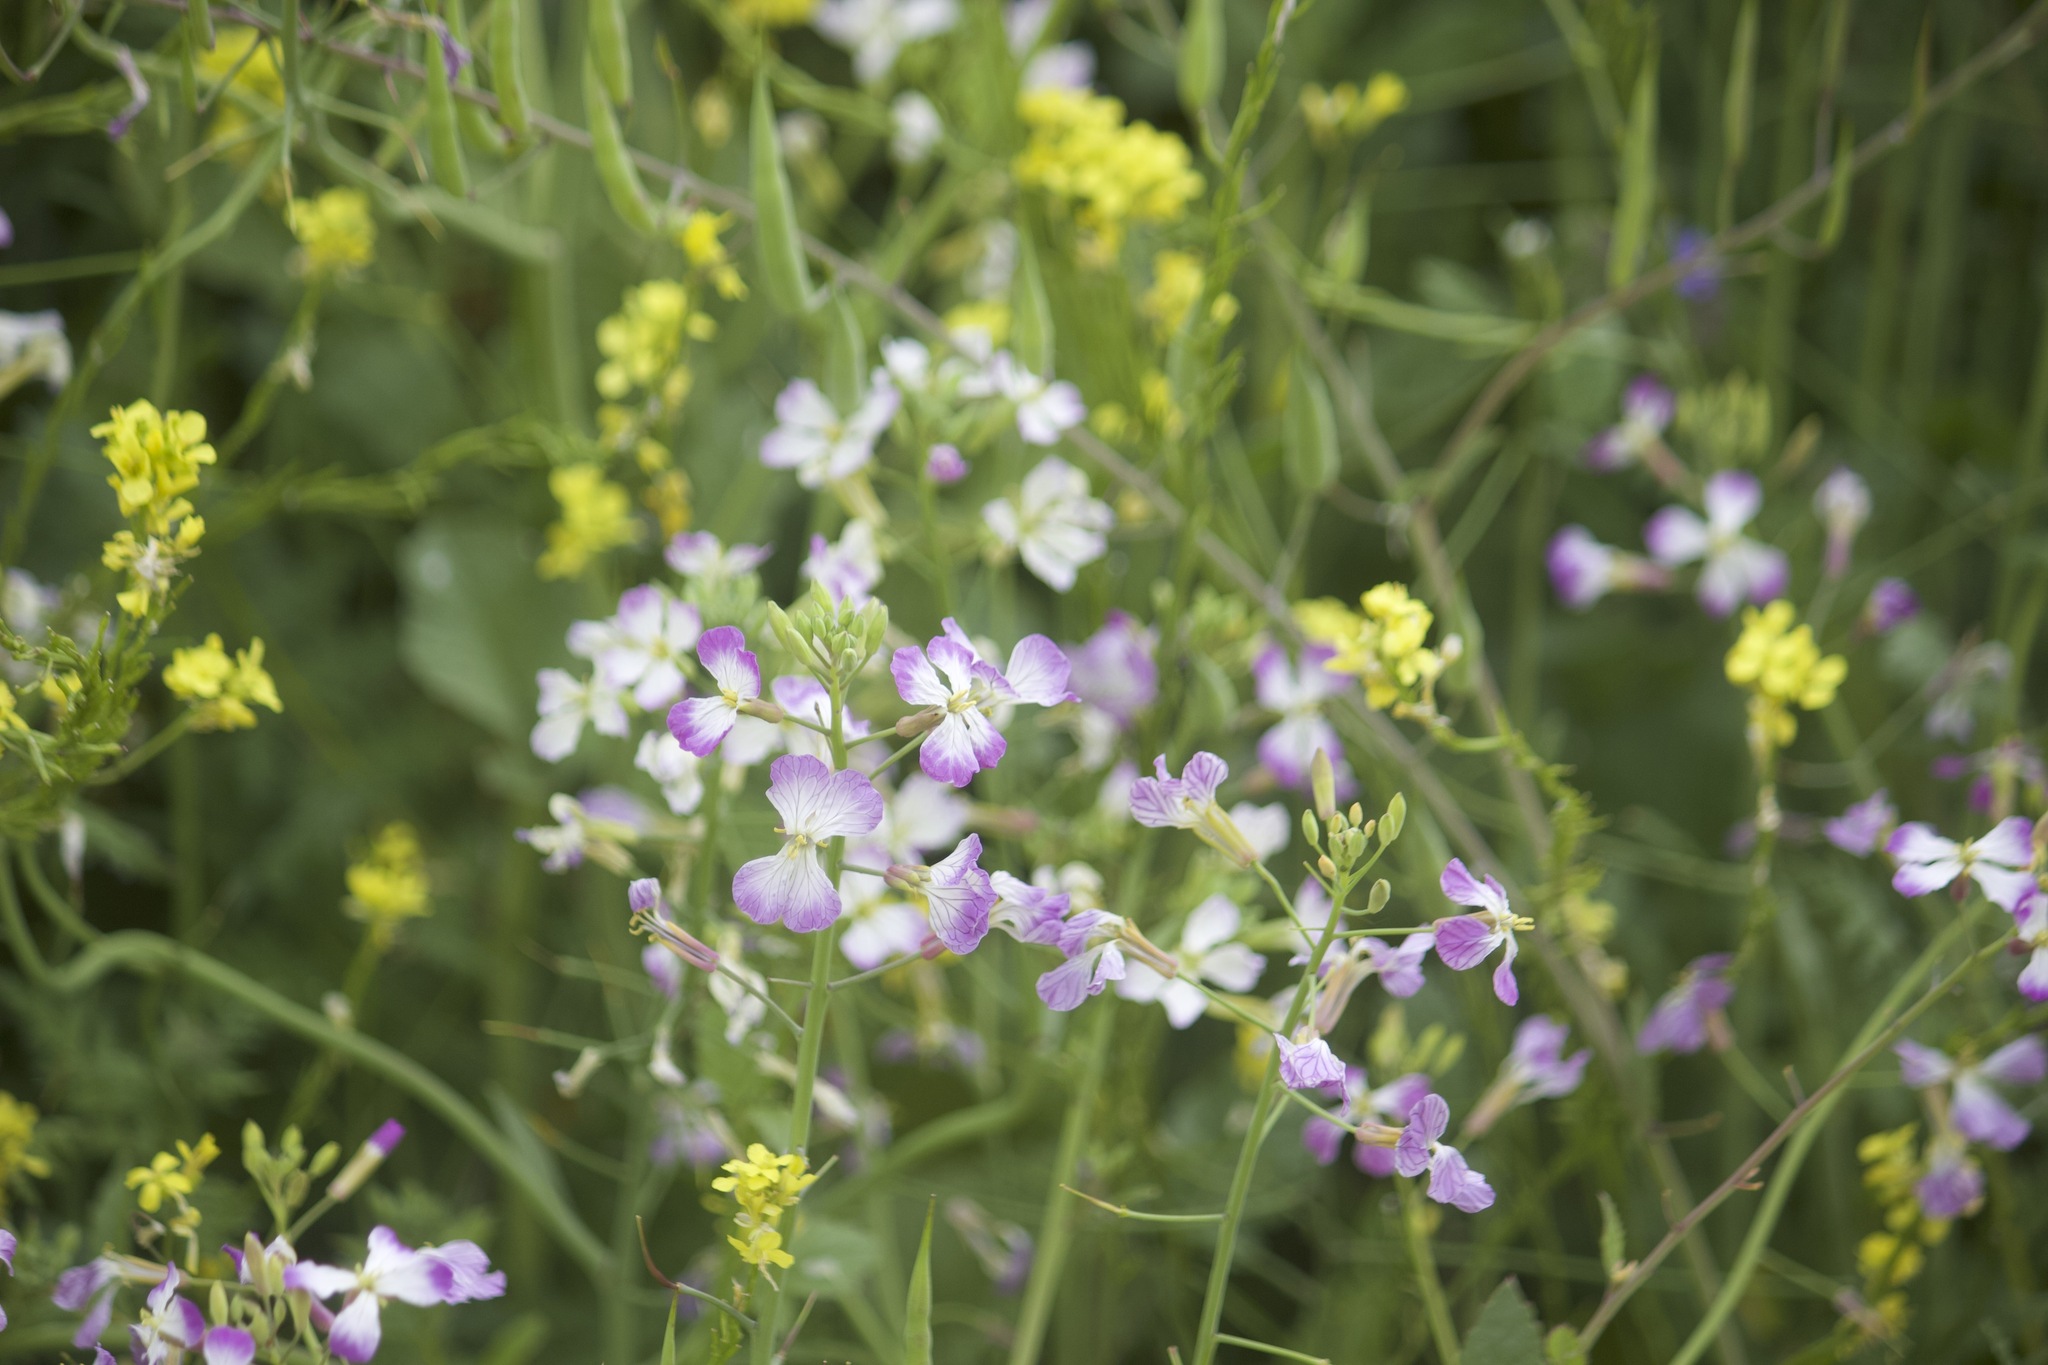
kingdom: Plantae
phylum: Tracheophyta
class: Magnoliopsida
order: Brassicales
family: Brassicaceae
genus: Raphanus
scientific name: Raphanus sativus
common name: Cultivated radish
